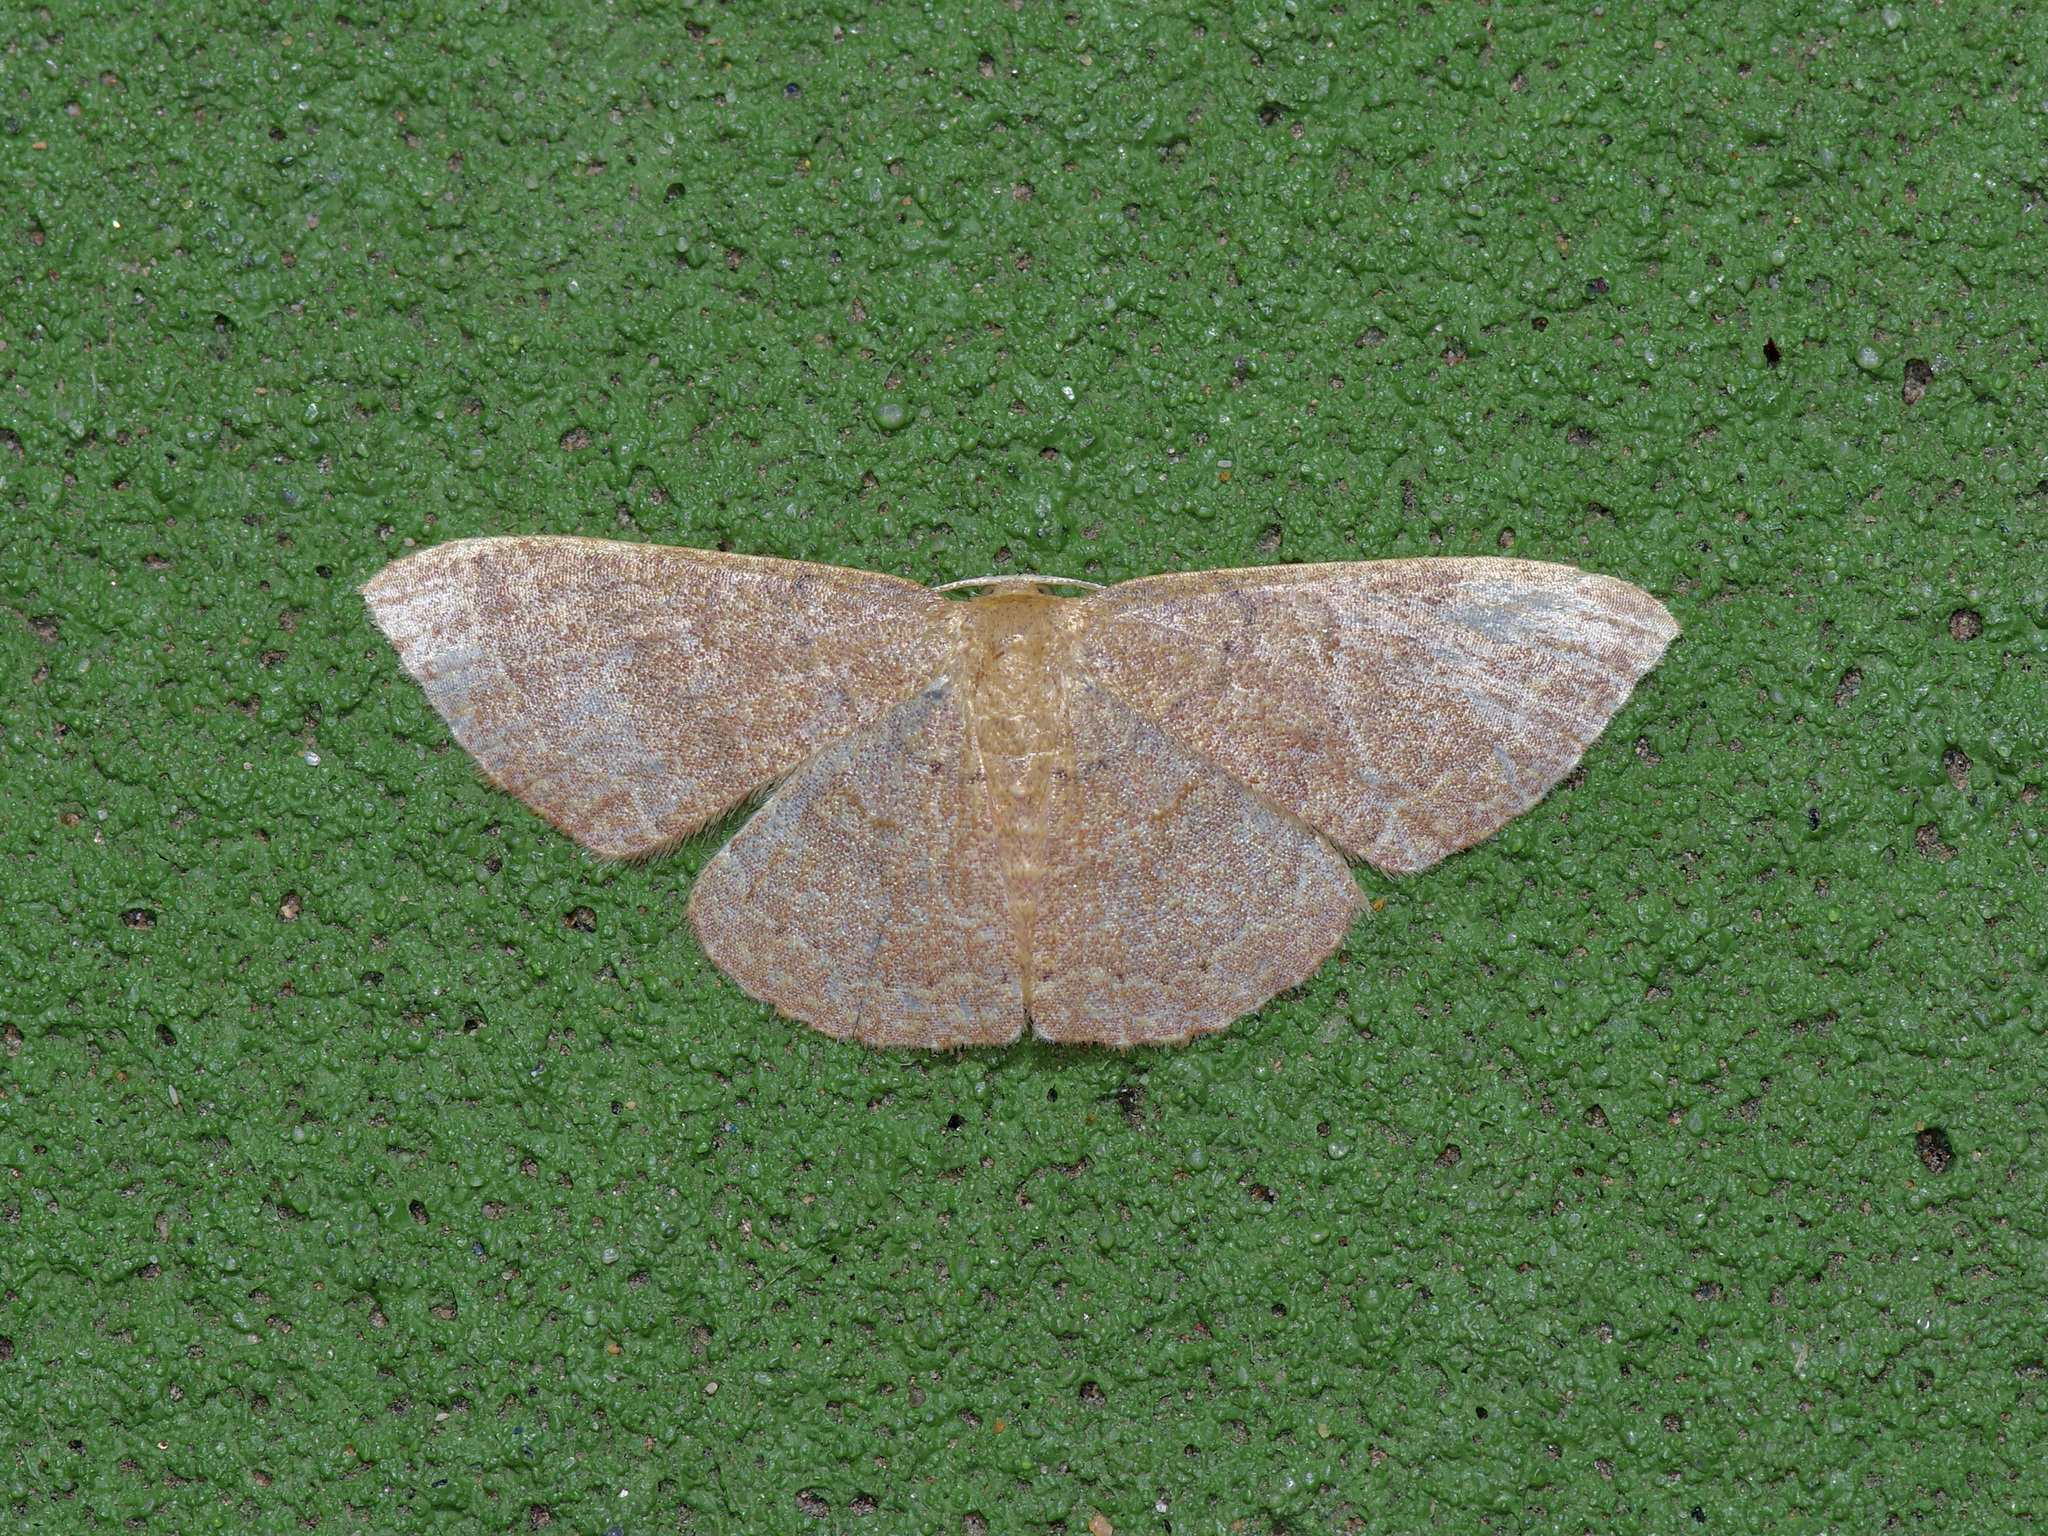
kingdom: Animalia
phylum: Arthropoda
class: Insecta
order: Lepidoptera
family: Geometridae
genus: Pleuroprucha
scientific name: Pleuroprucha insulsaria
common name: Common tan wave
